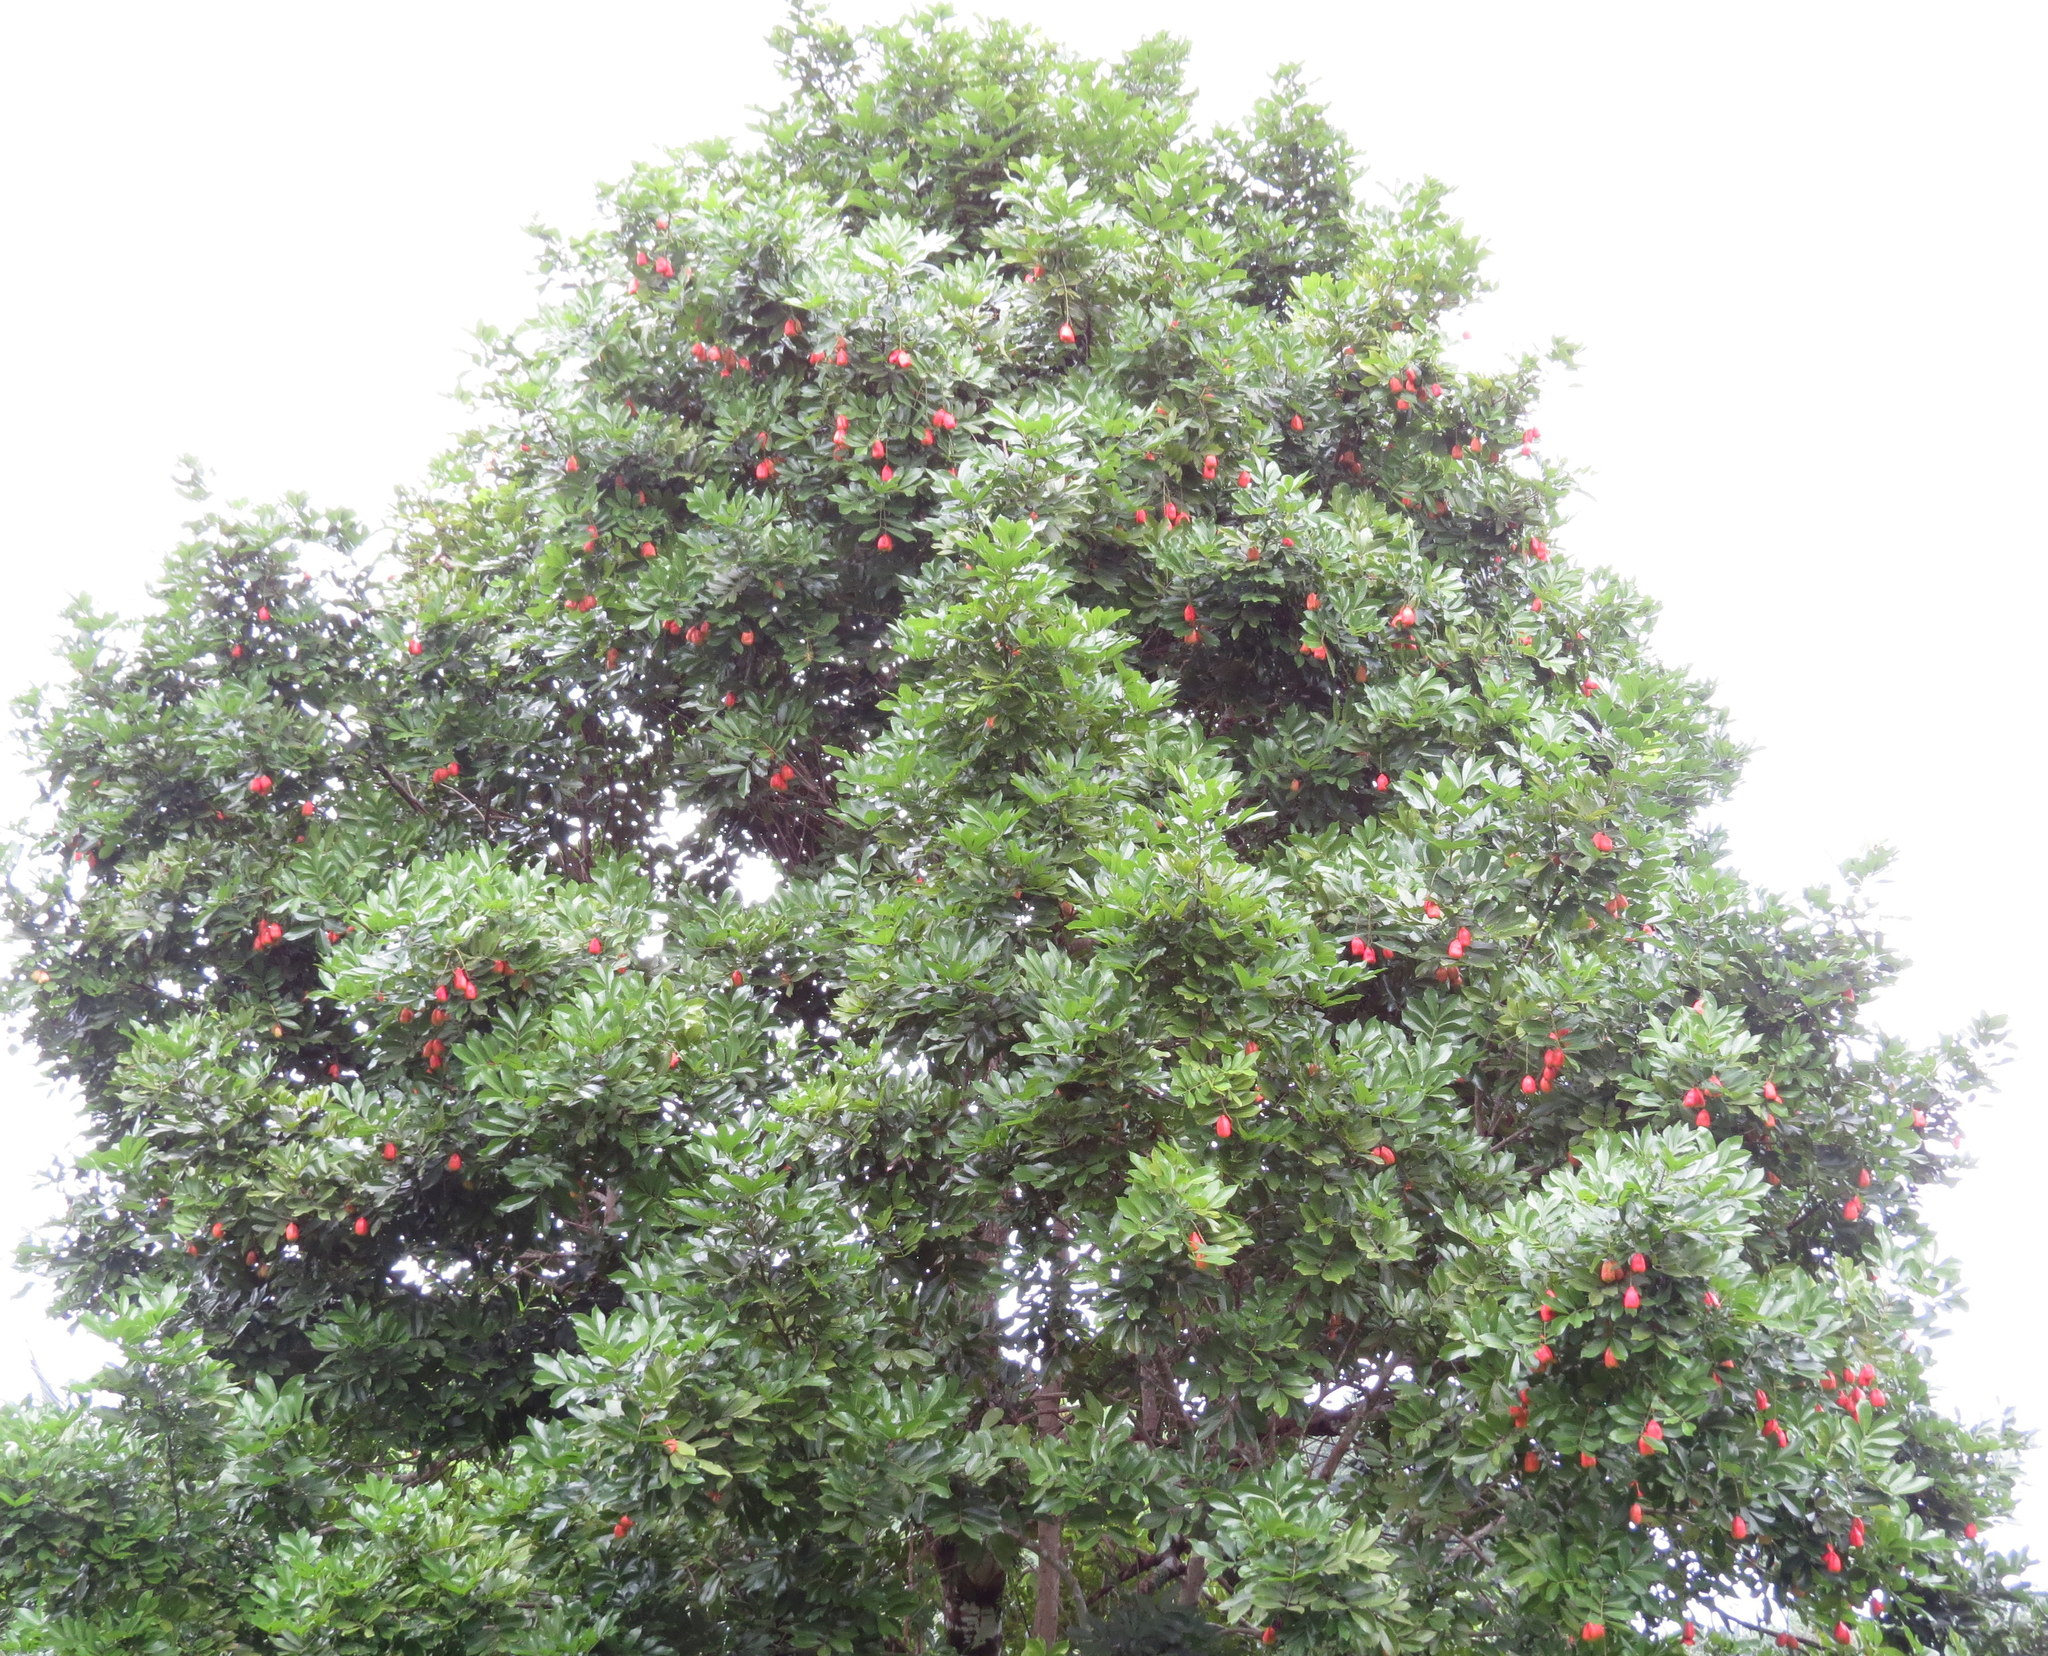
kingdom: Plantae
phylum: Tracheophyta
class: Magnoliopsida
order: Sapindales
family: Sapindaceae
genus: Blighia
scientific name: Blighia sapida
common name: Akee
